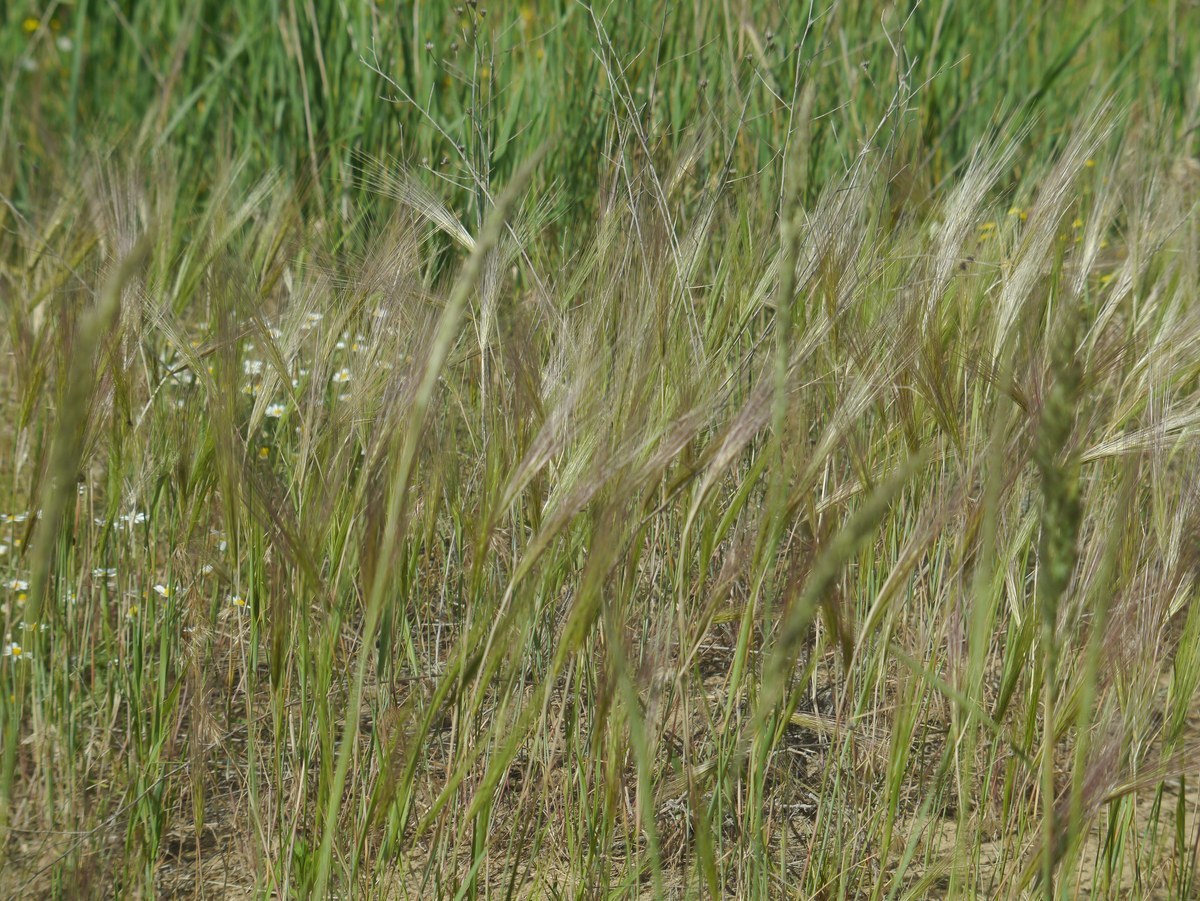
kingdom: Plantae
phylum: Tracheophyta
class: Liliopsida
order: Poales
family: Poaceae
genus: Secale
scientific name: Secale sylvestre
